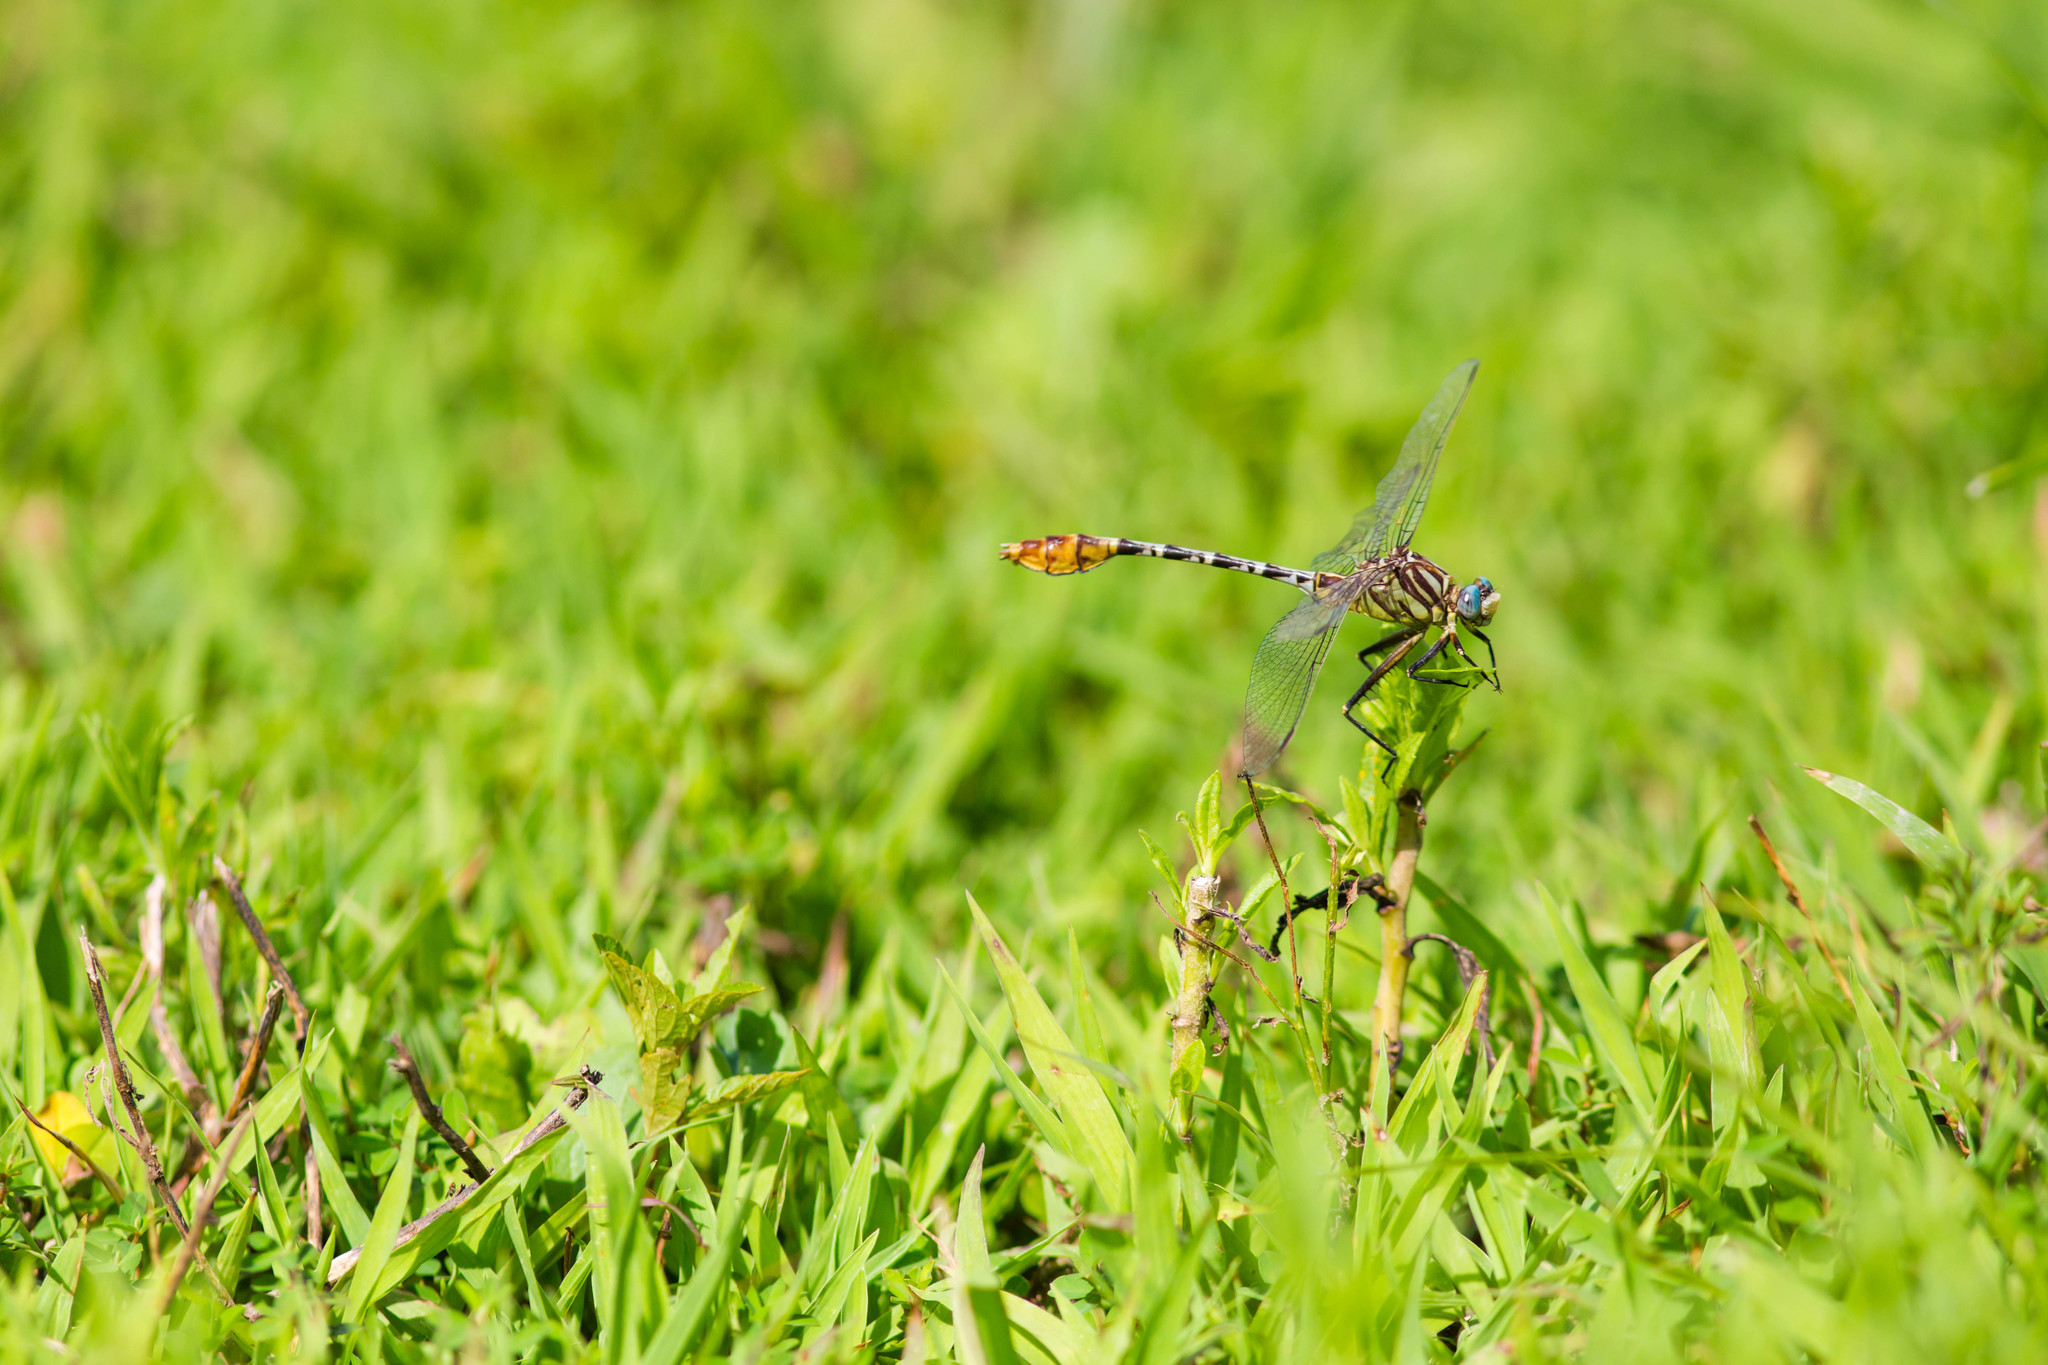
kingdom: Animalia
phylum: Arthropoda
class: Insecta
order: Odonata
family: Gomphidae
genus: Dromogomphus
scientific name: Dromogomphus spoliatus
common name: Flag-tailed spinyleg
